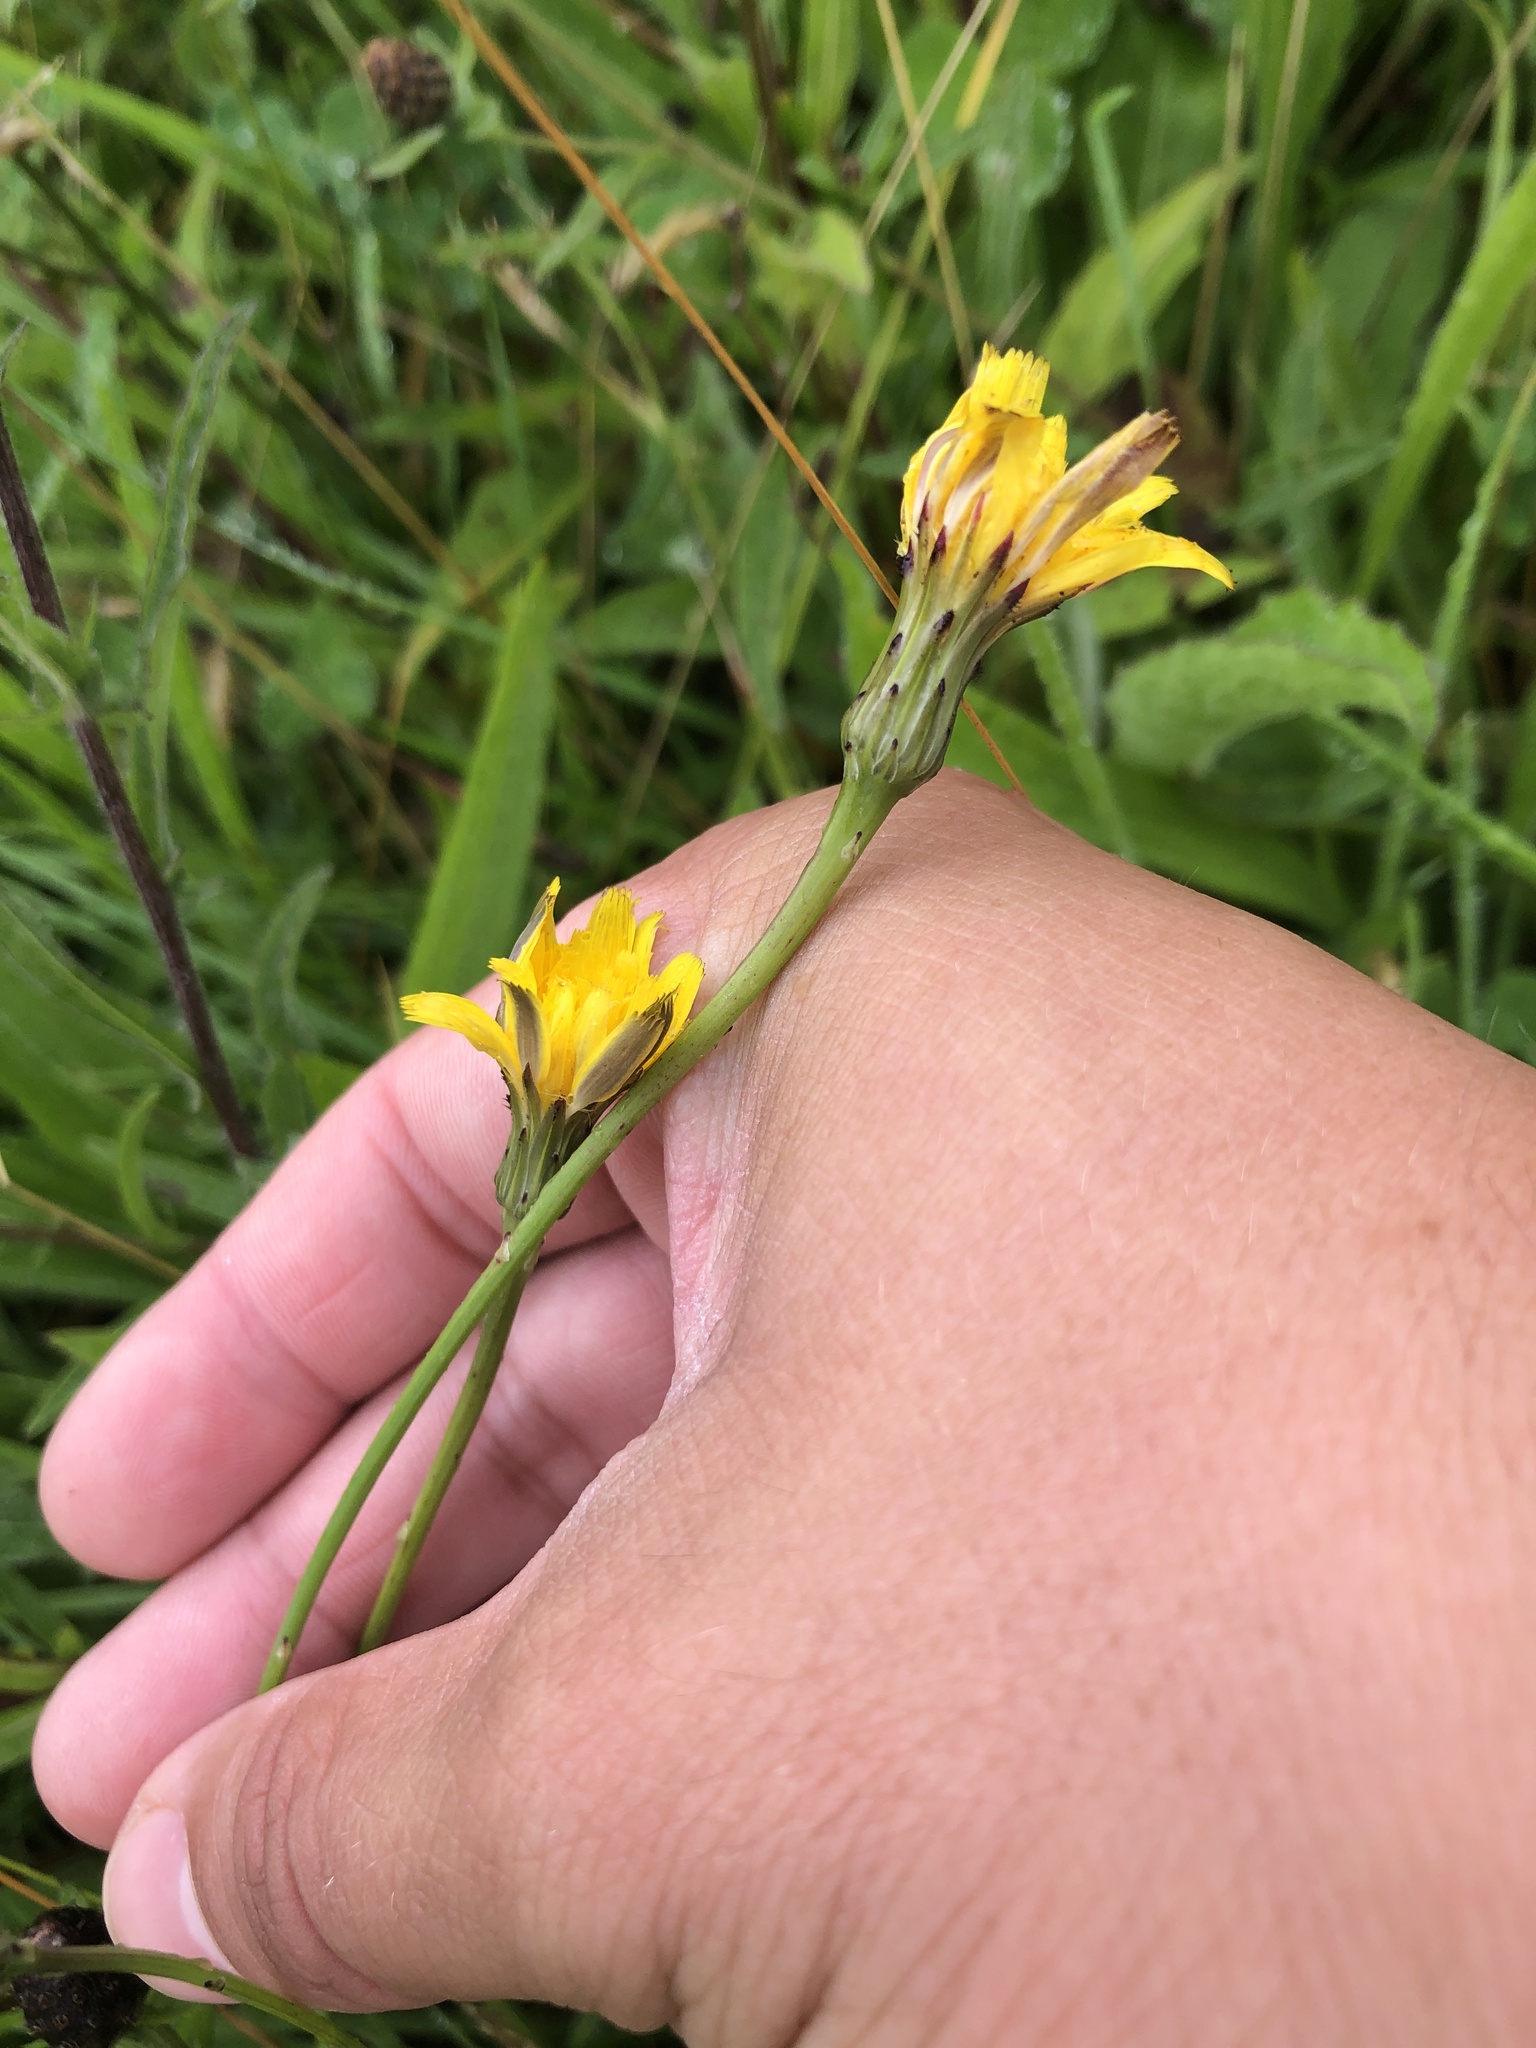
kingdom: Plantae
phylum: Tracheophyta
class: Magnoliopsida
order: Asterales
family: Asteraceae
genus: Hypochaeris
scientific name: Hypochaeris radicata
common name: Flatweed
